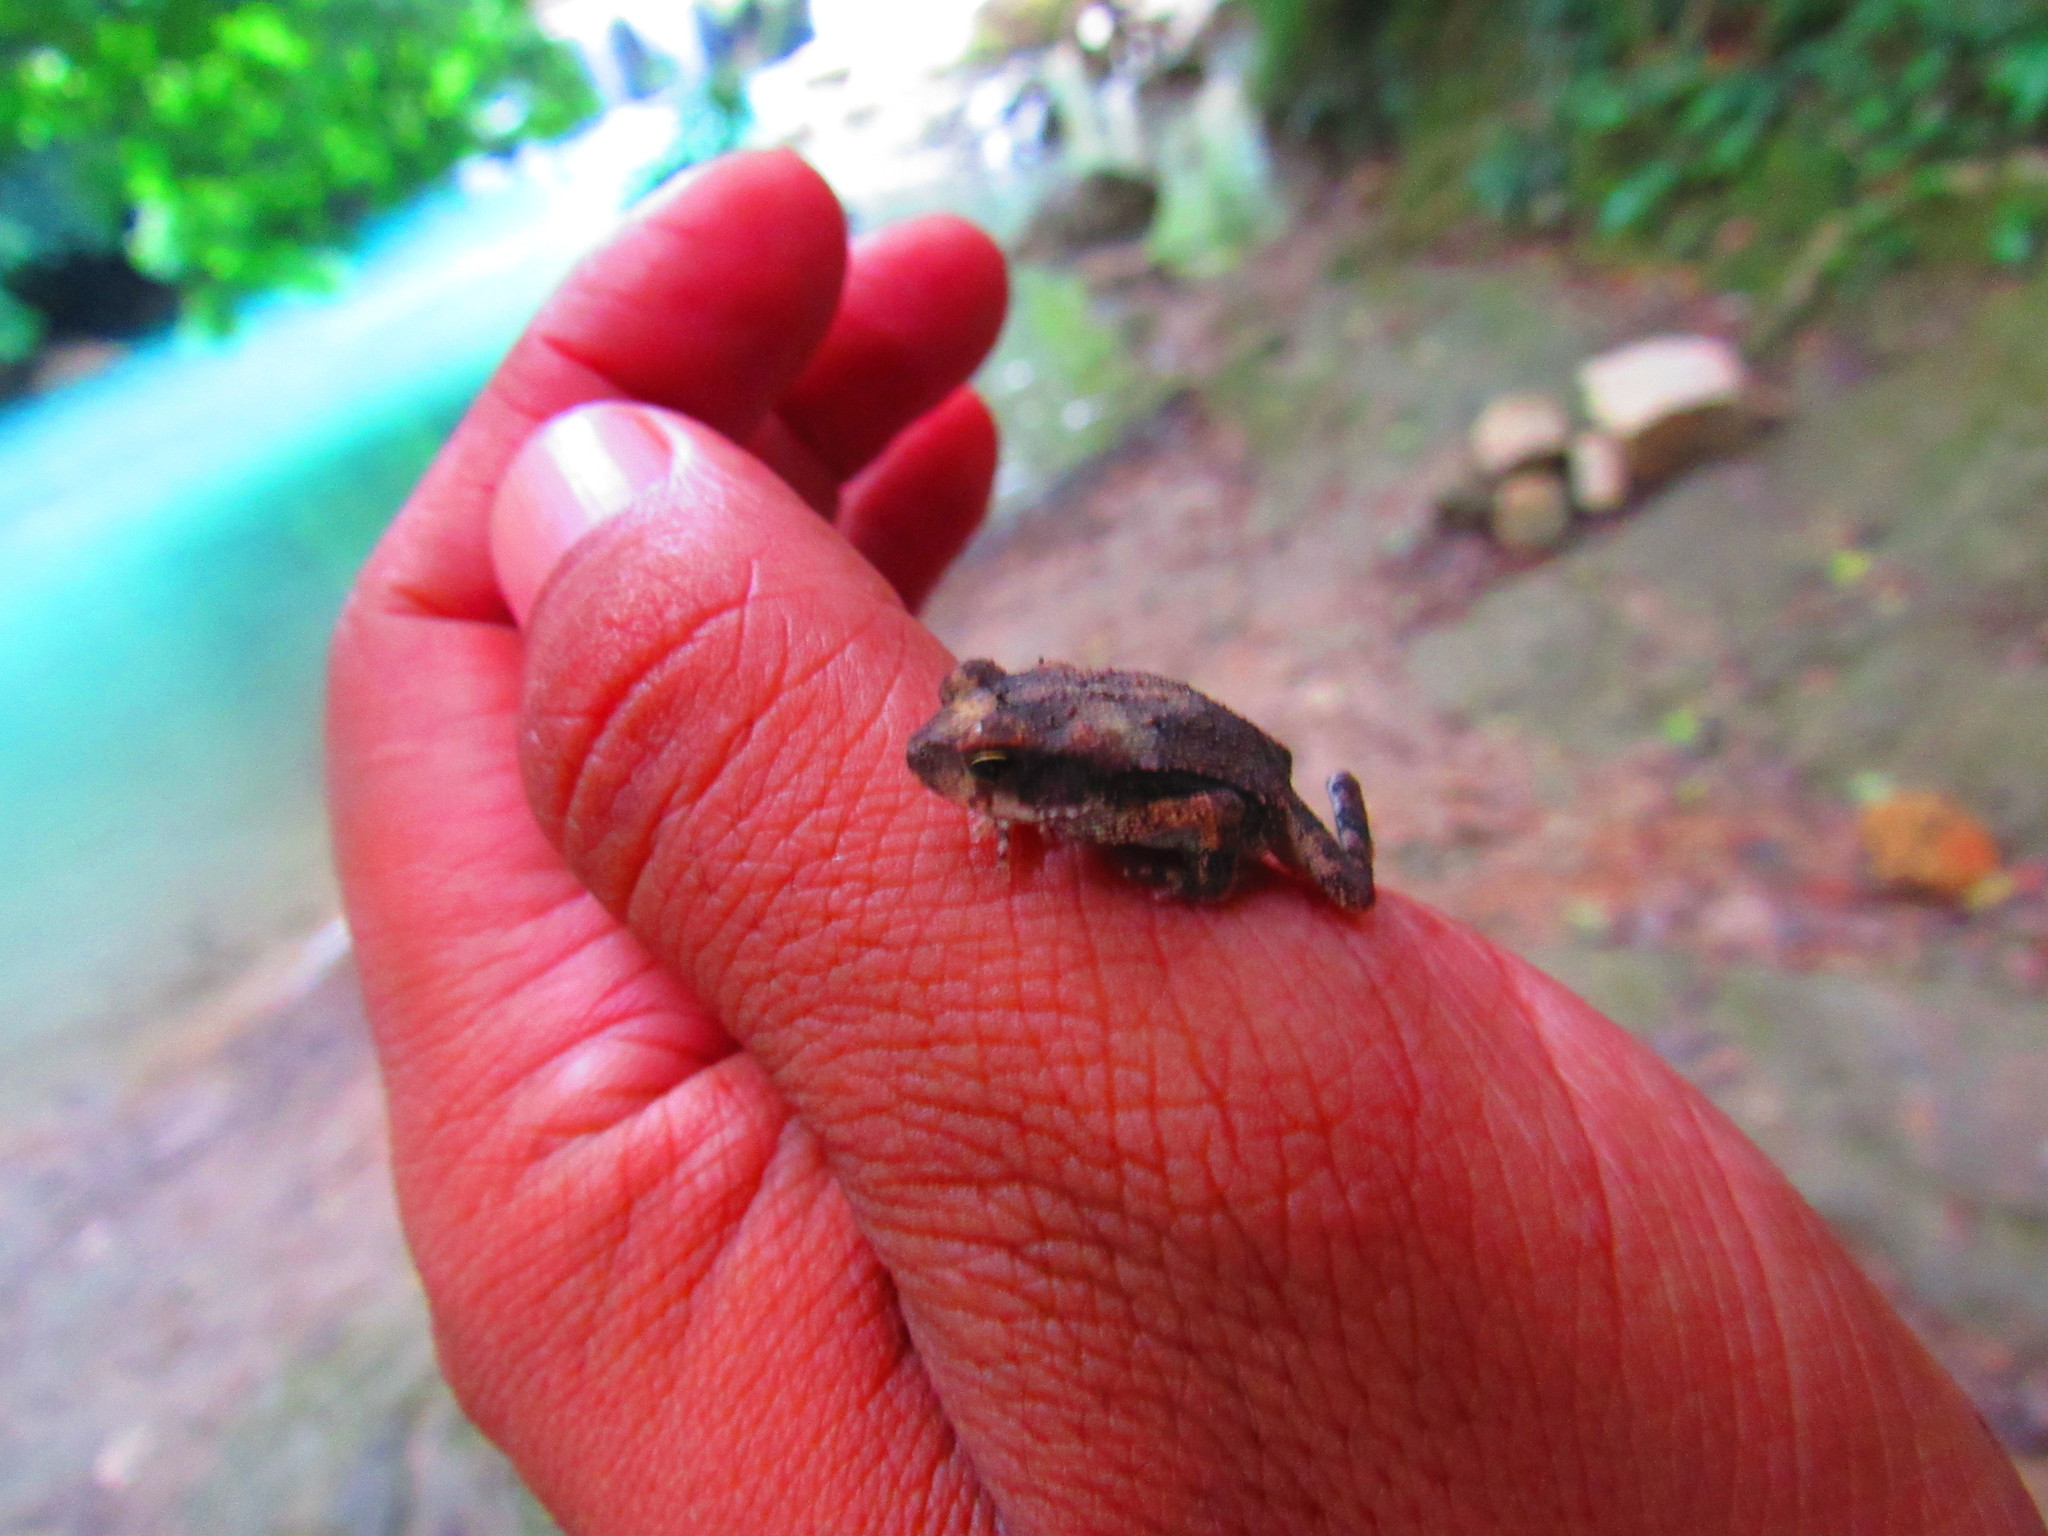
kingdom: Animalia
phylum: Chordata
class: Amphibia
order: Anura
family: Bufonidae
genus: Incilius
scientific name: Incilius nebulifer
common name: Gulf coast toad
